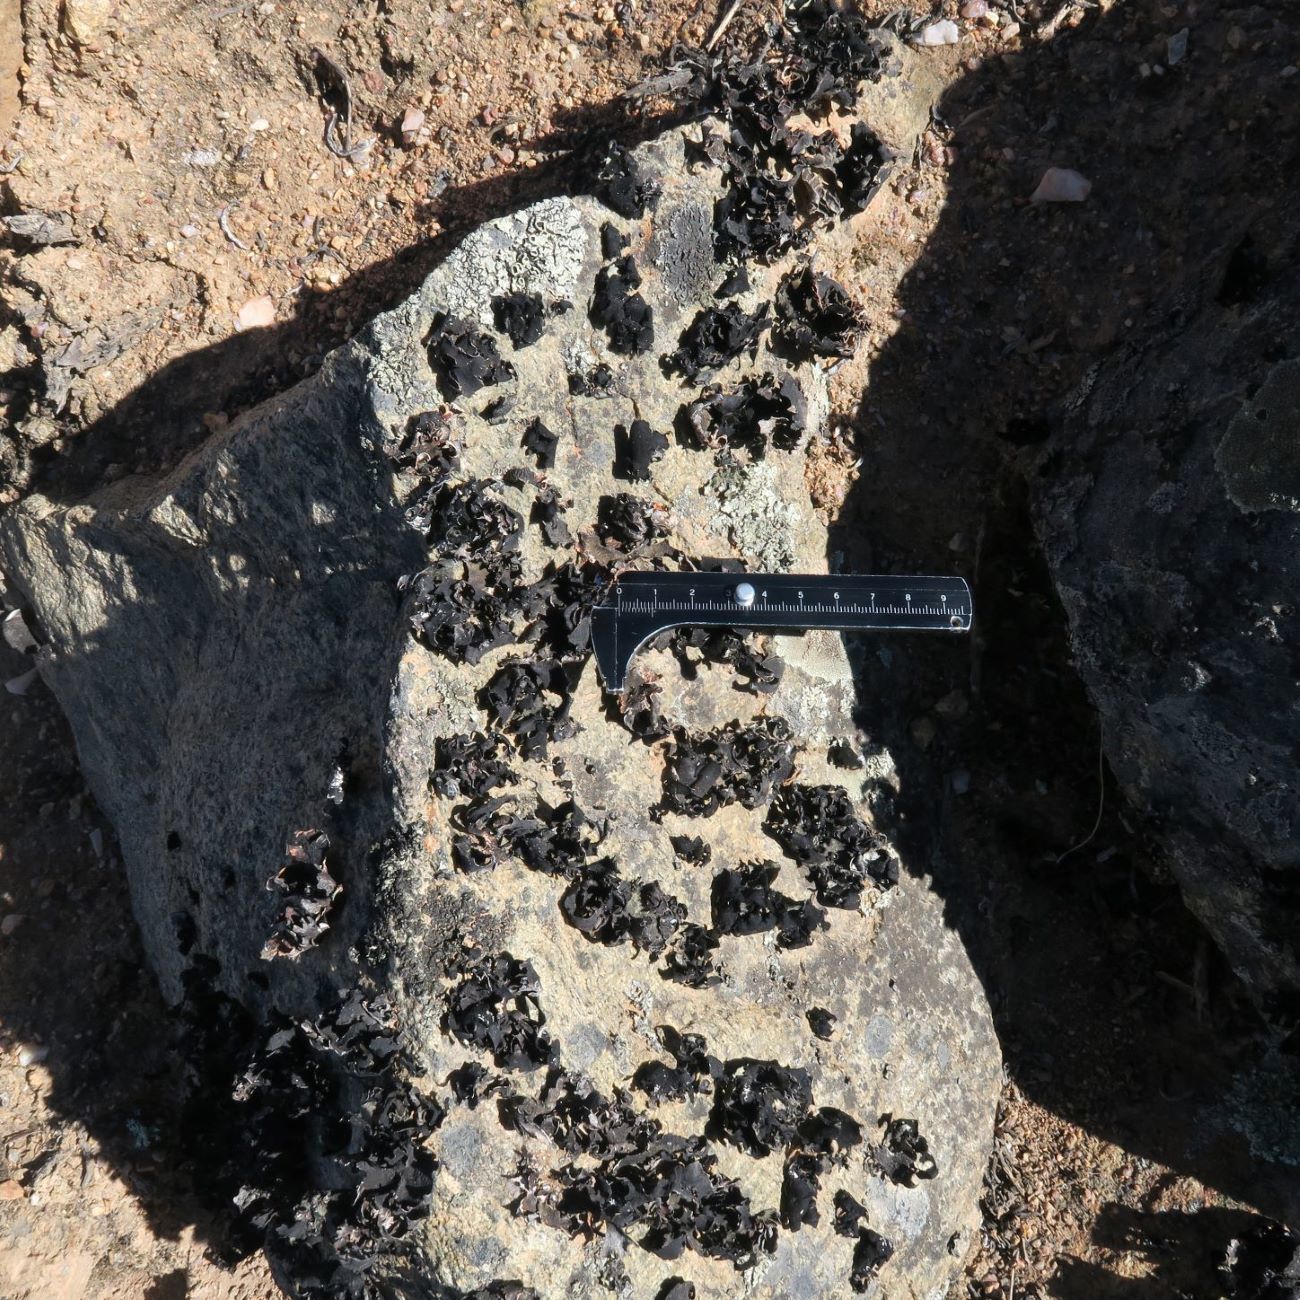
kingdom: Fungi
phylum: Ascomycota
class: Lecanoromycetes
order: Lecanorales
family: Parmeliaceae
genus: Xanthoparmelia
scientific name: Xanthoparmelia hottentotta
